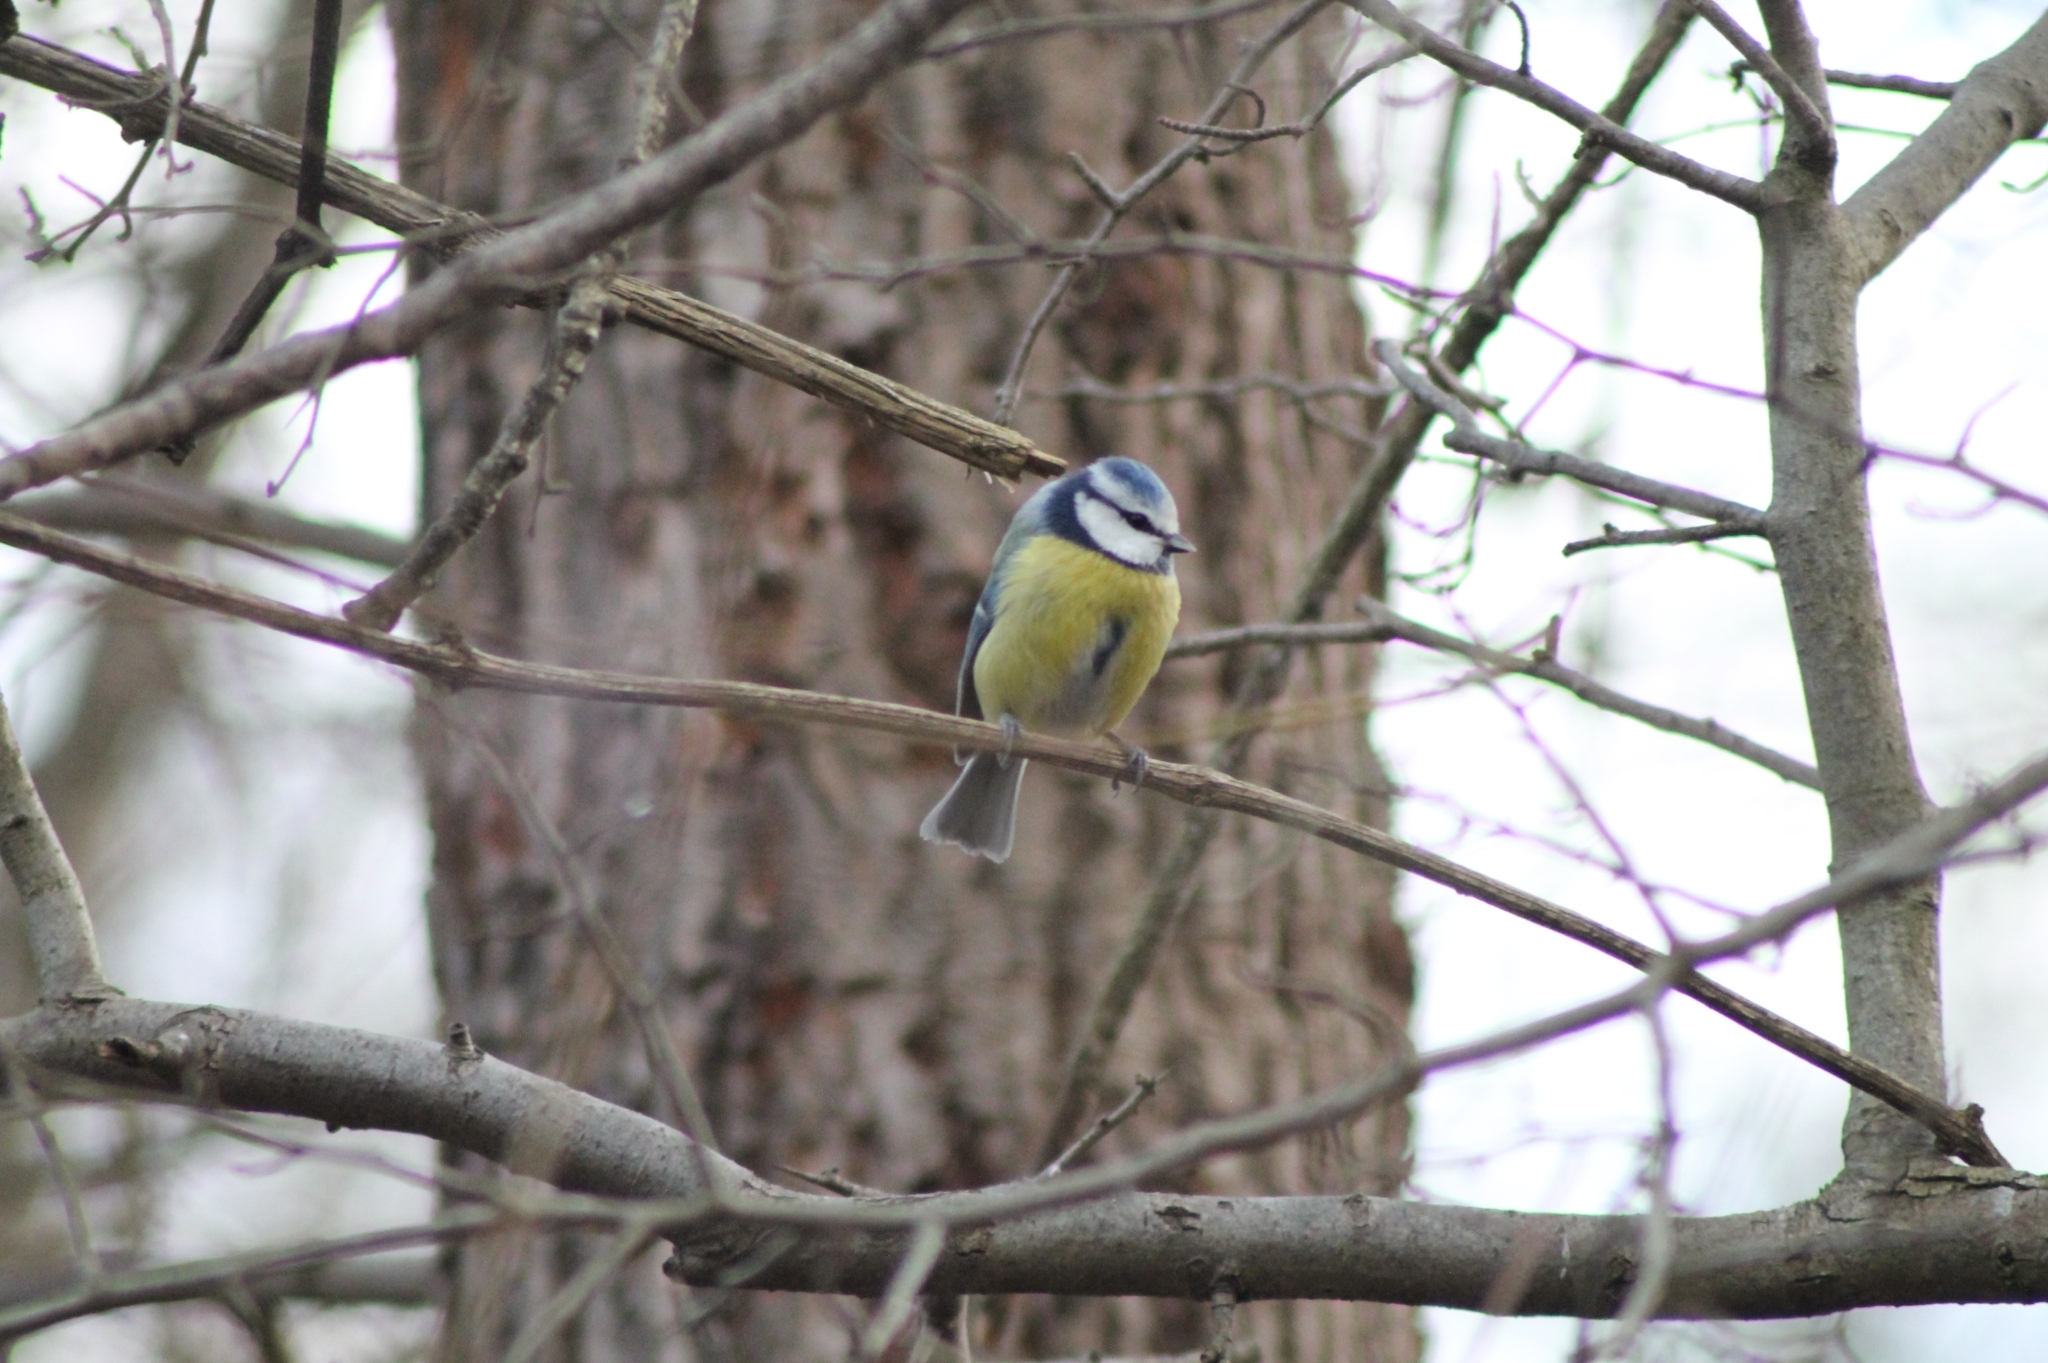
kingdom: Animalia
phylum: Chordata
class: Aves
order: Passeriformes
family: Paridae
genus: Cyanistes
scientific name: Cyanistes caeruleus
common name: Eurasian blue tit
